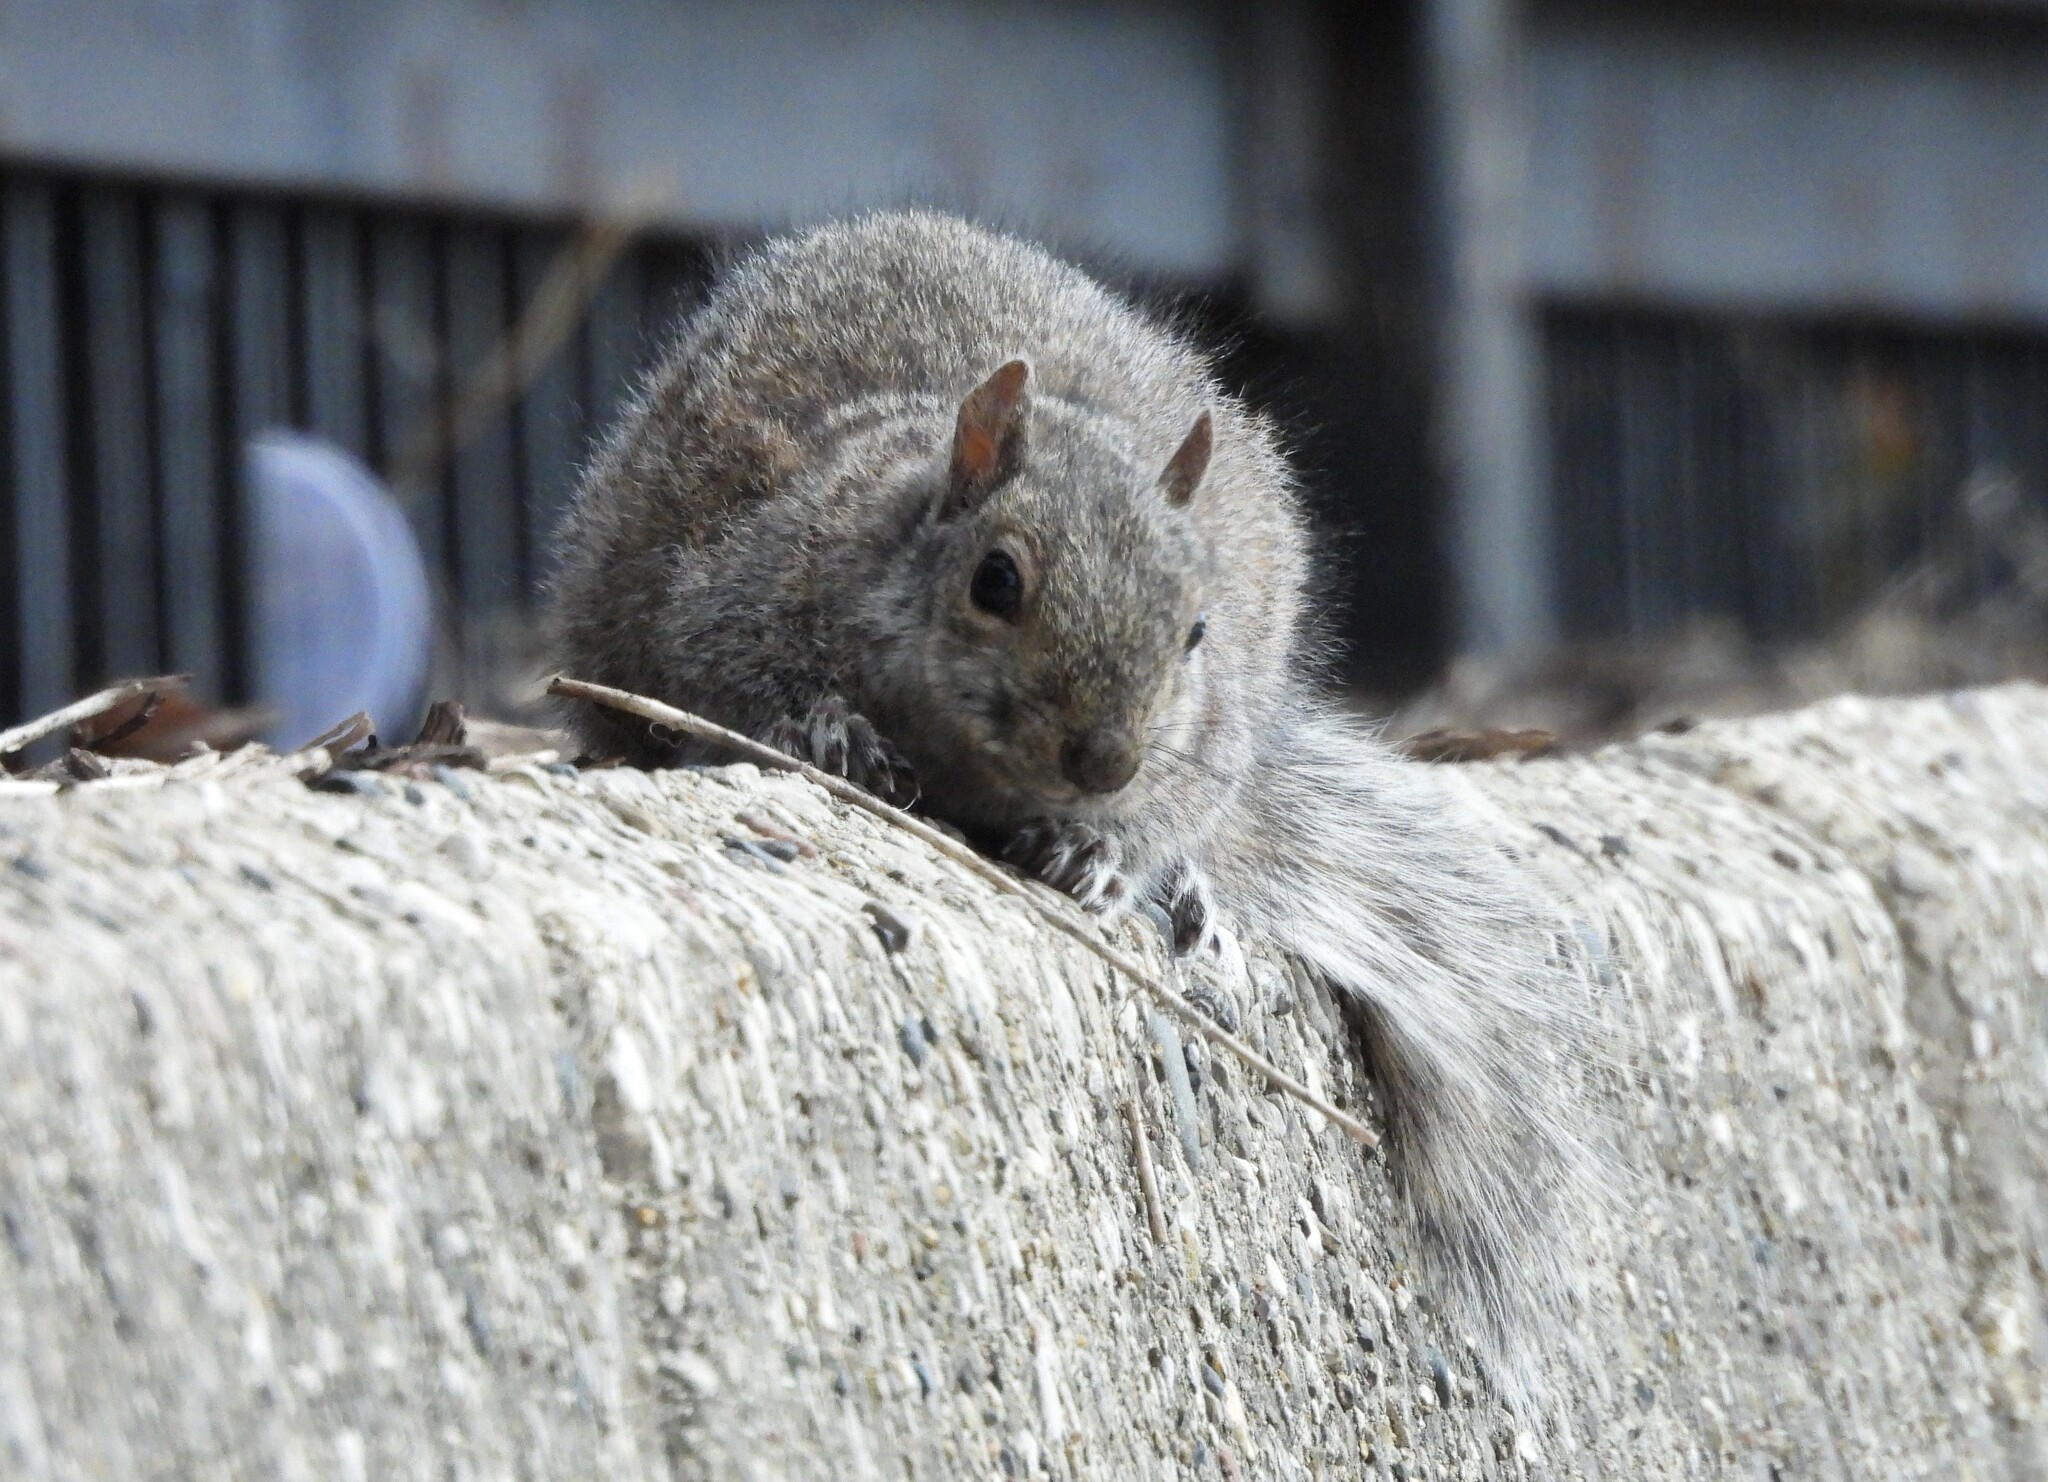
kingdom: Animalia
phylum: Chordata
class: Mammalia
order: Rodentia
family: Sciuridae
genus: Sciurus
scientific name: Sciurus carolinensis
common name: Eastern gray squirrel
